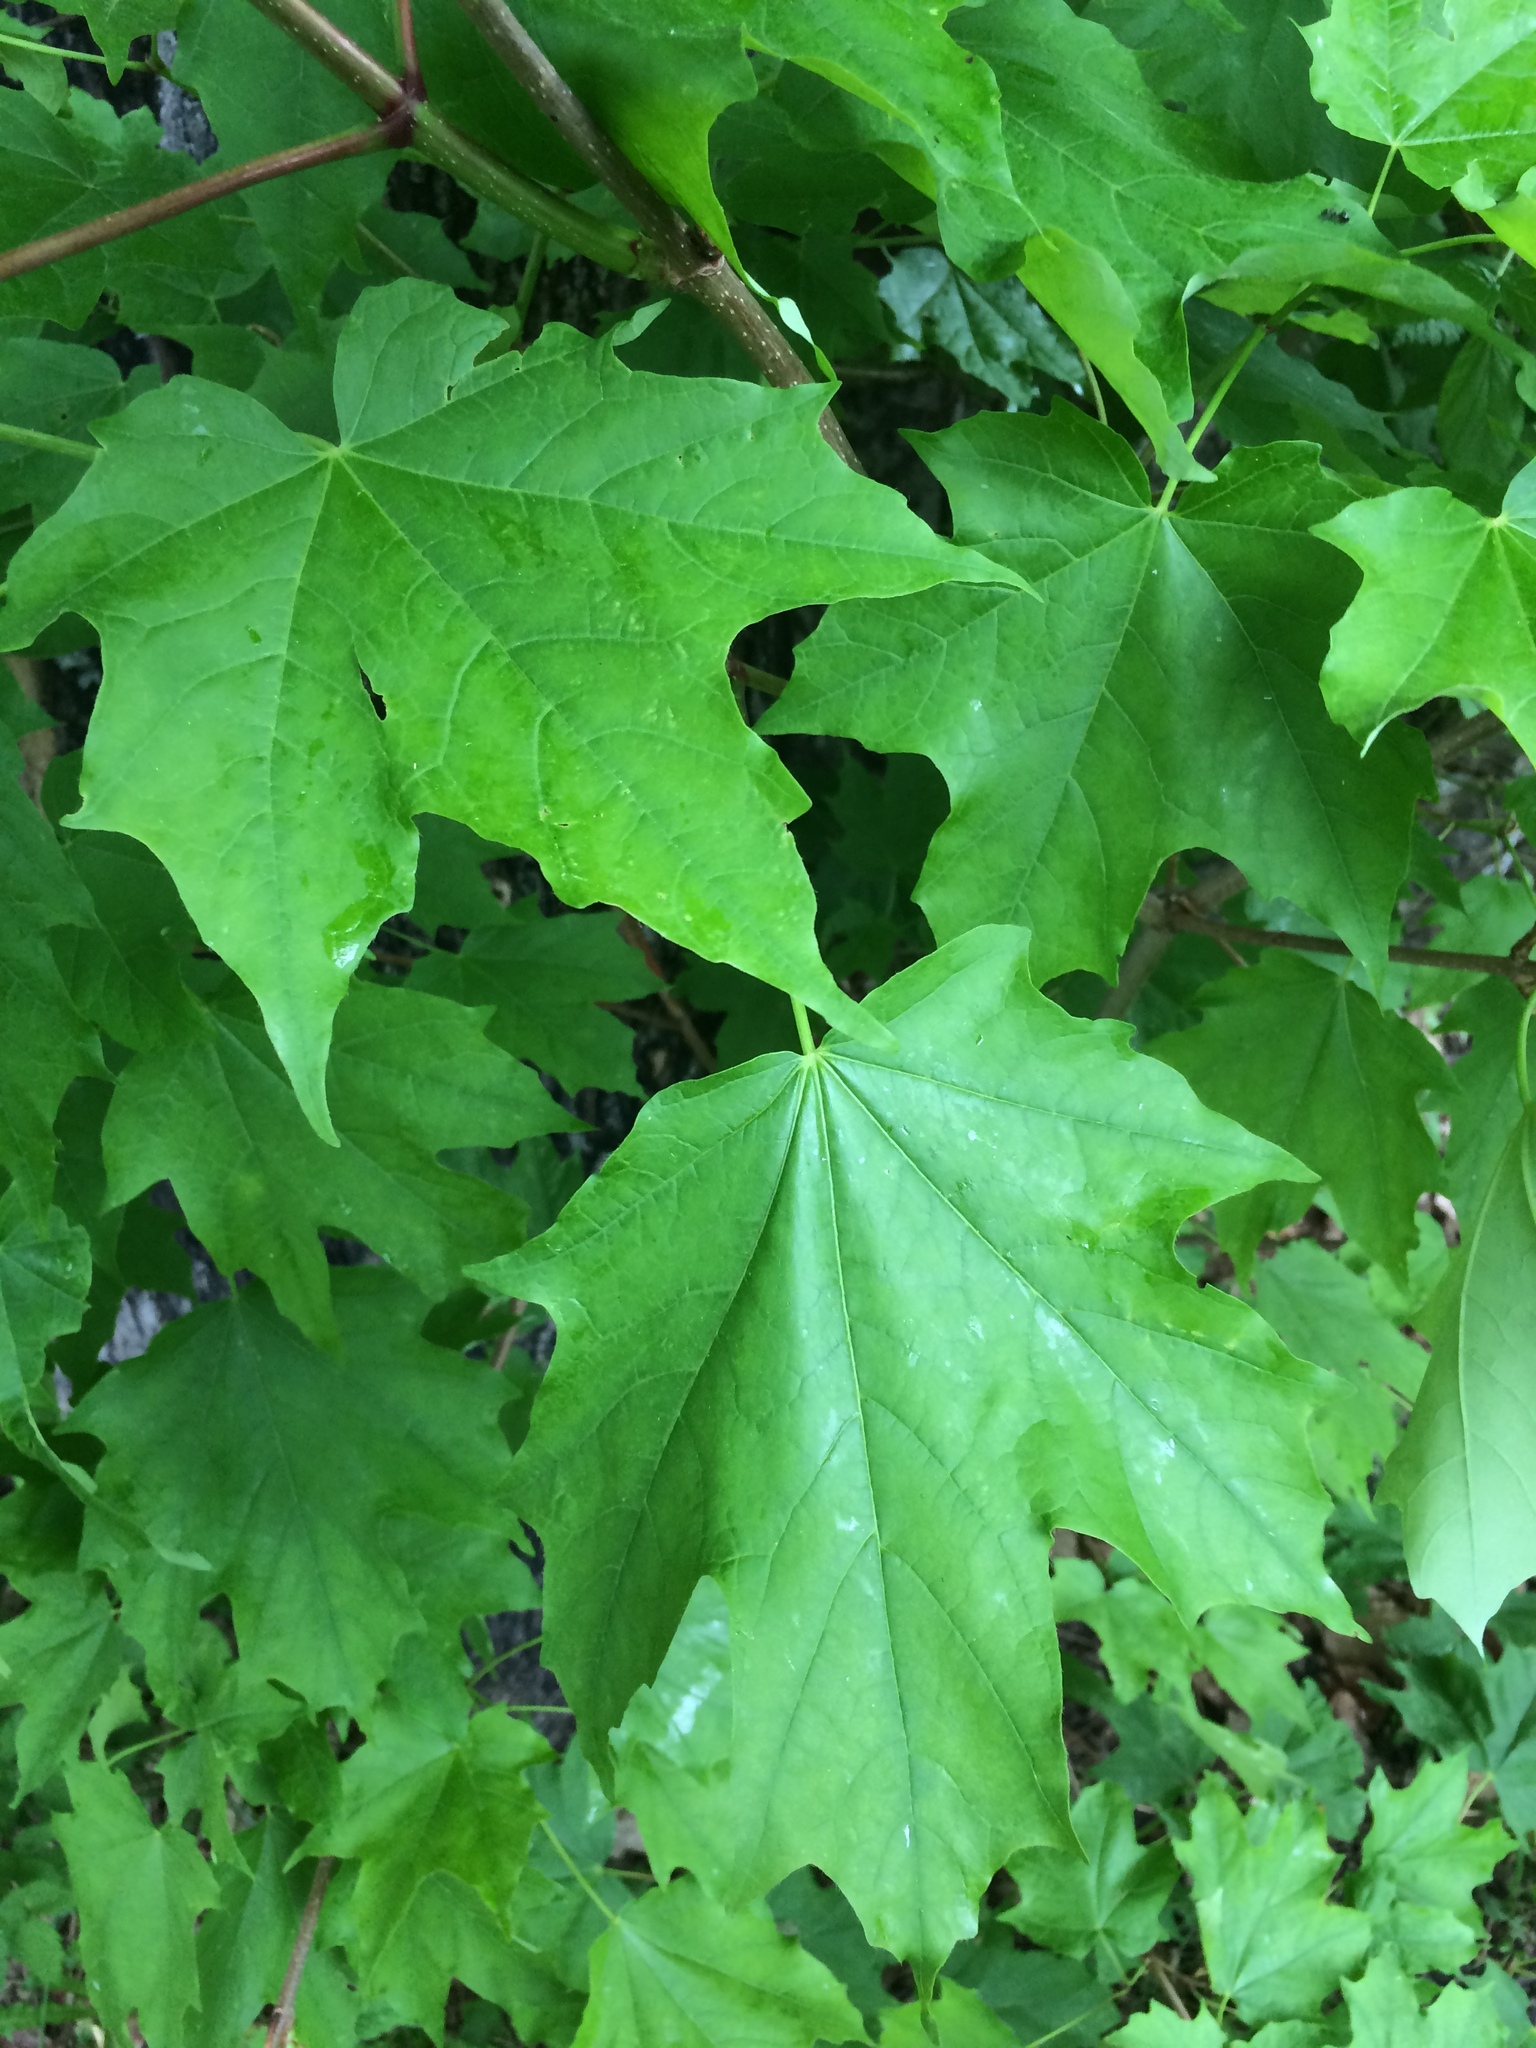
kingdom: Plantae
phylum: Tracheophyta
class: Magnoliopsida
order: Sapindales
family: Sapindaceae
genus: Acer
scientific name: Acer saccharum
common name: Sugar maple
